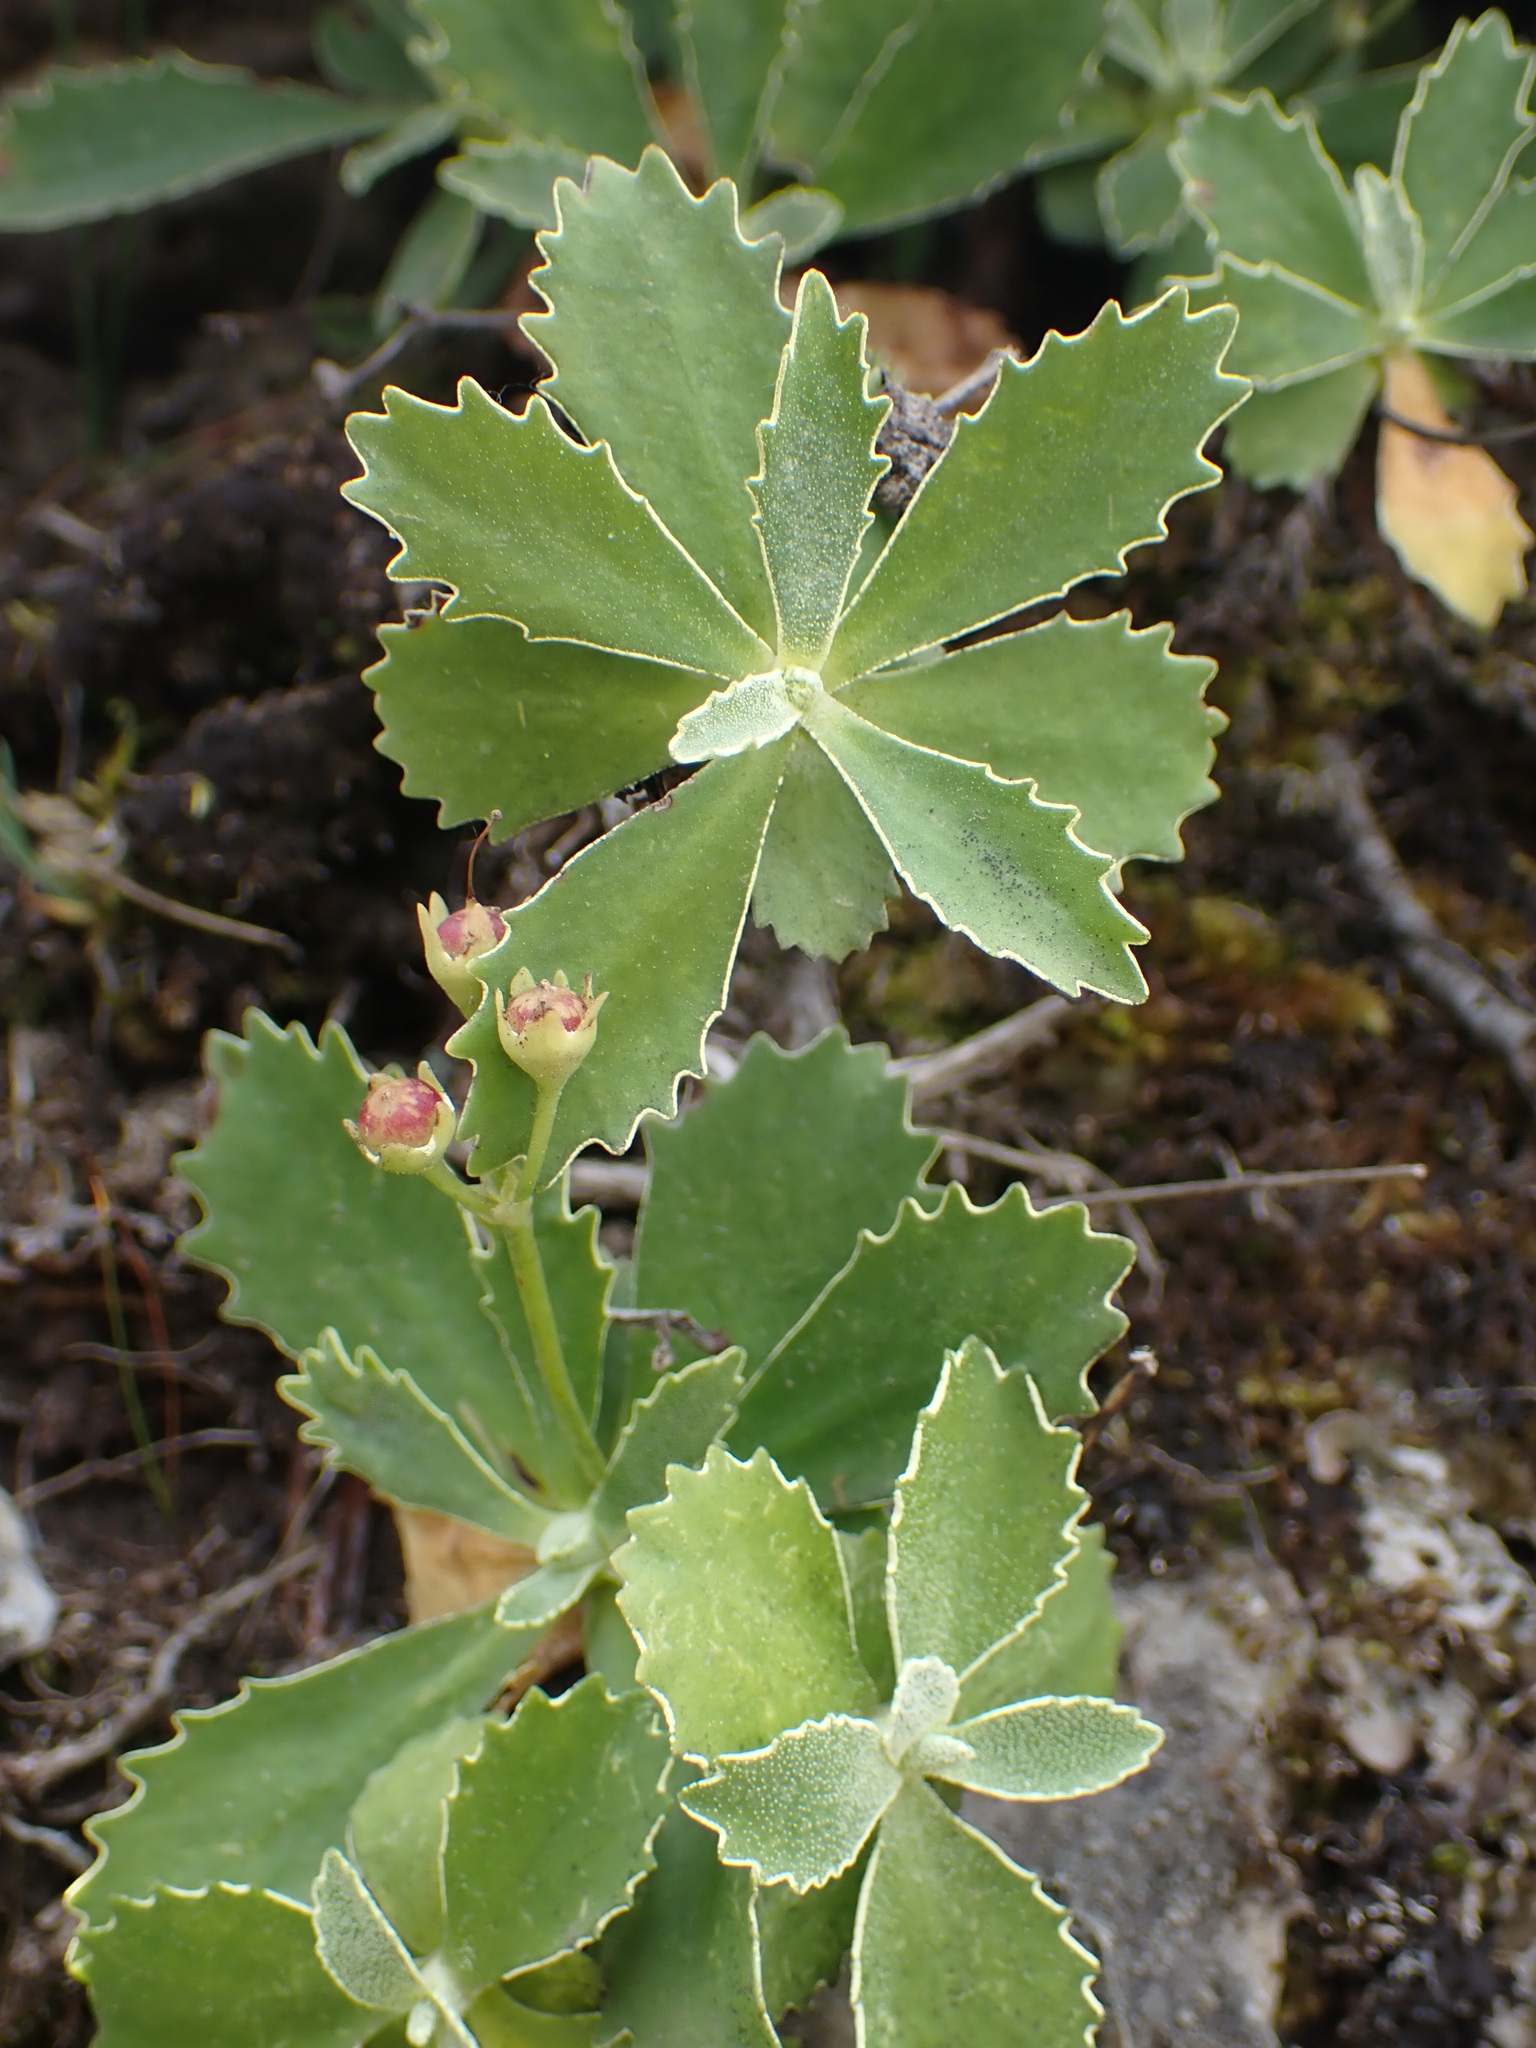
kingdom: Plantae
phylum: Tracheophyta
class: Magnoliopsida
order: Ericales
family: Primulaceae
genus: Primula
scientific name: Primula marginata
